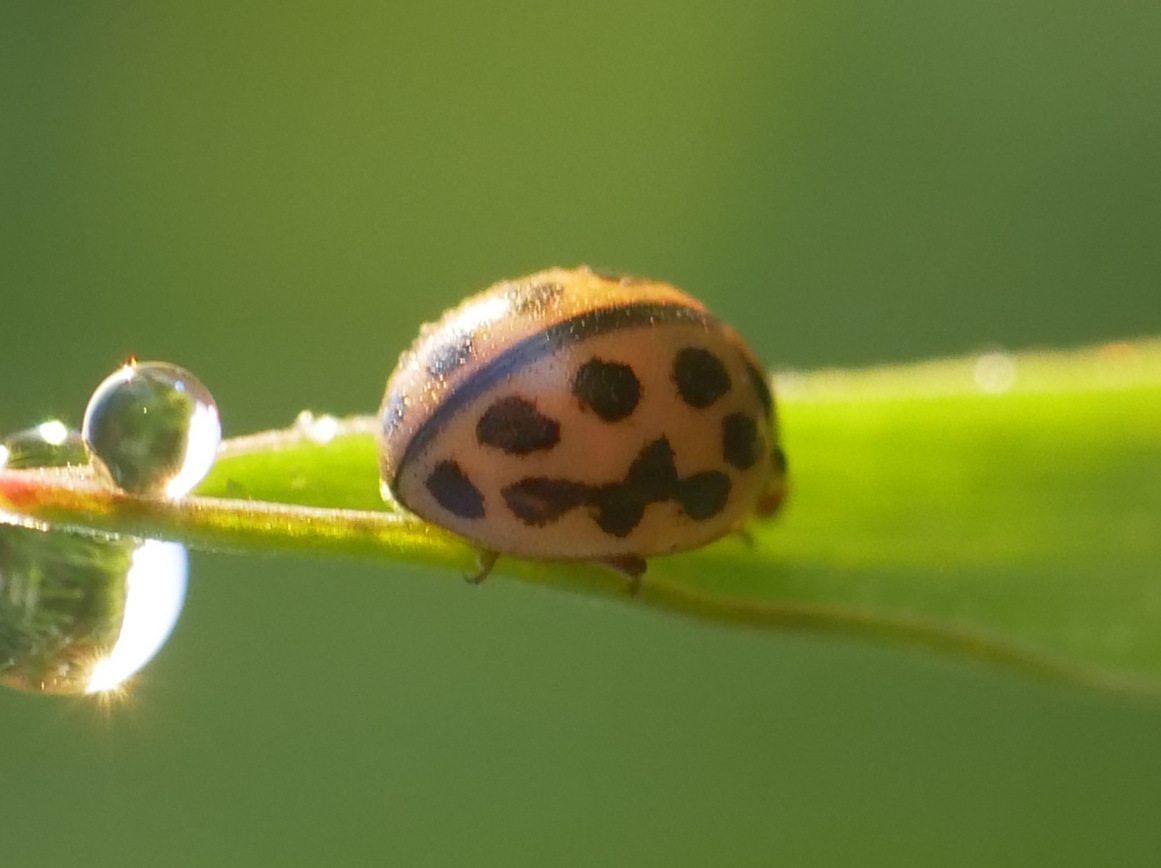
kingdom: Animalia
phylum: Arthropoda
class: Insecta
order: Coleoptera
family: Coccinellidae
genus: Tytthaspis
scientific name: Tytthaspis sedecimpunctata
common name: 16-spot ladybird
